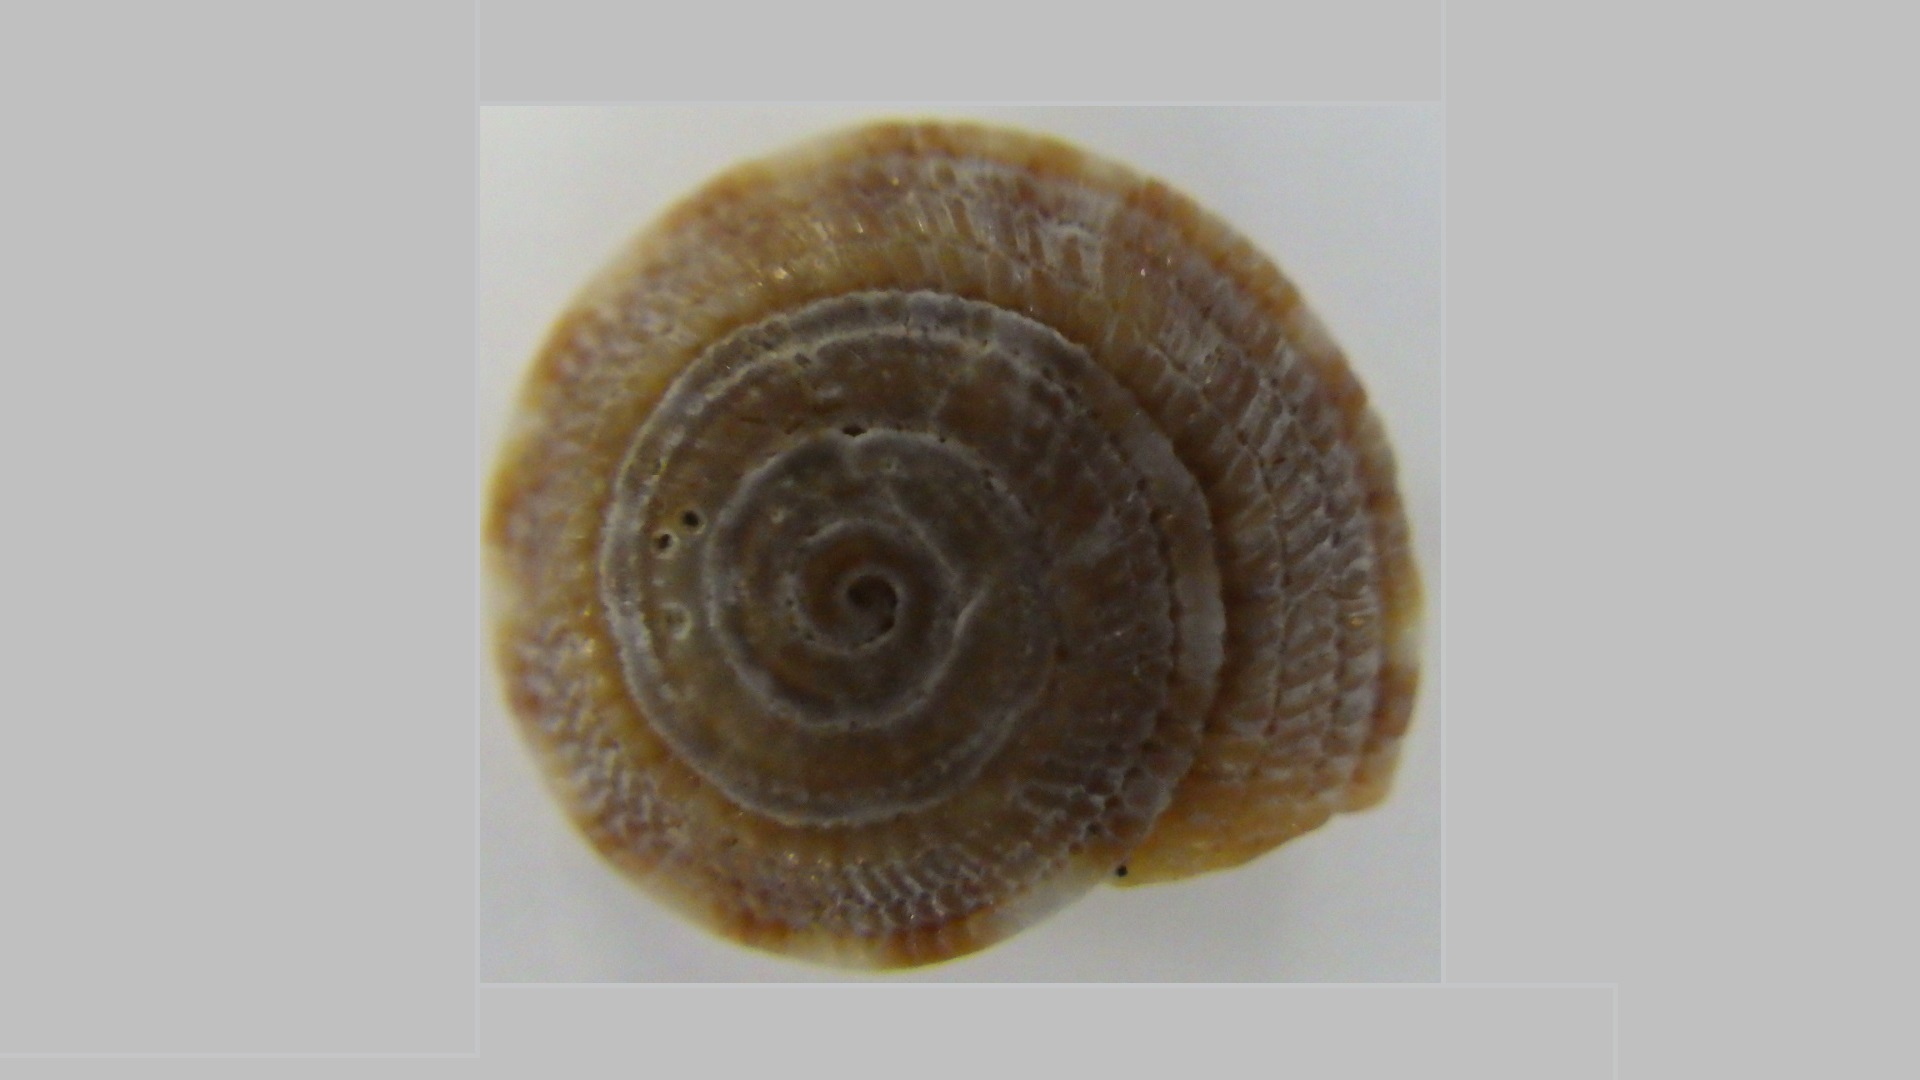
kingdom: Animalia
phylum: Mollusca
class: Gastropoda
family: Architectonicidae
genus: Heliacus
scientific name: Heliacus implexus
